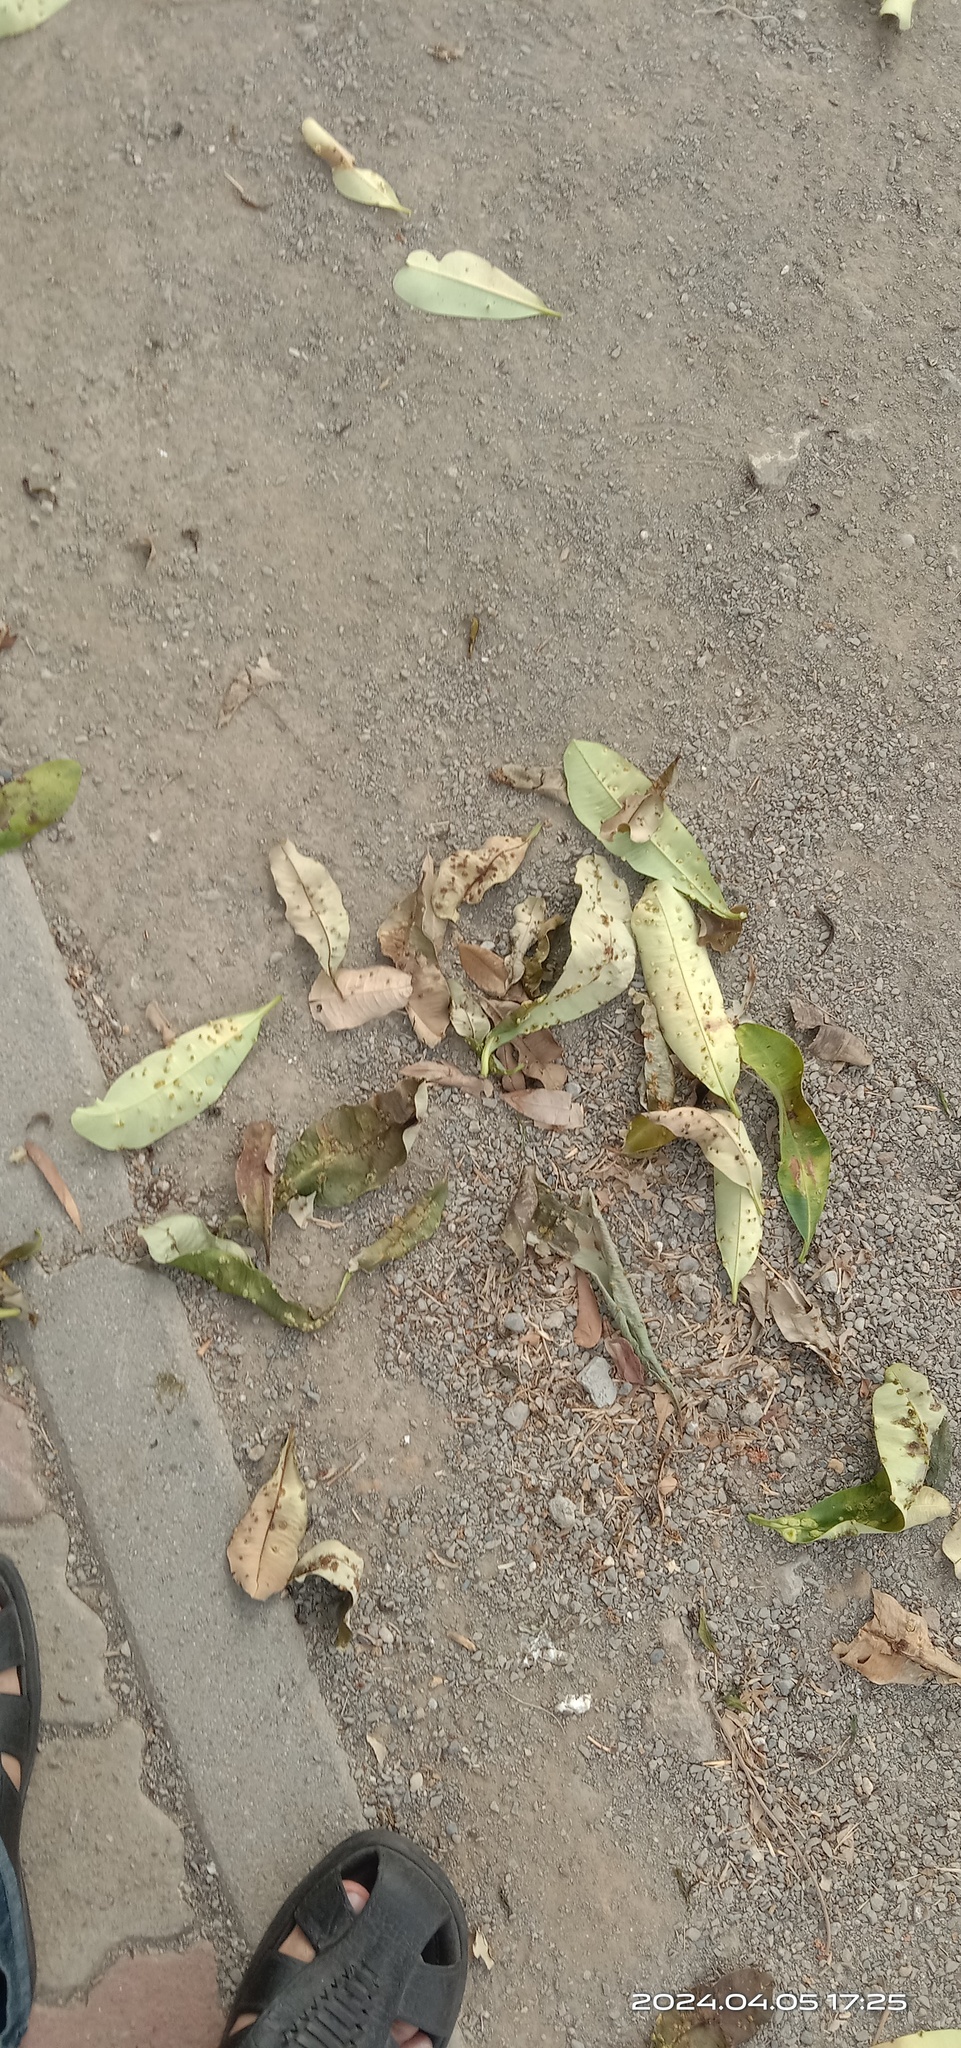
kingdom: Animalia
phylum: Arthropoda
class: Insecta
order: Hemiptera
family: Phacopteronidae
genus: Pseudophacopteron
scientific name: Pseudophacopteron tuberculatum
